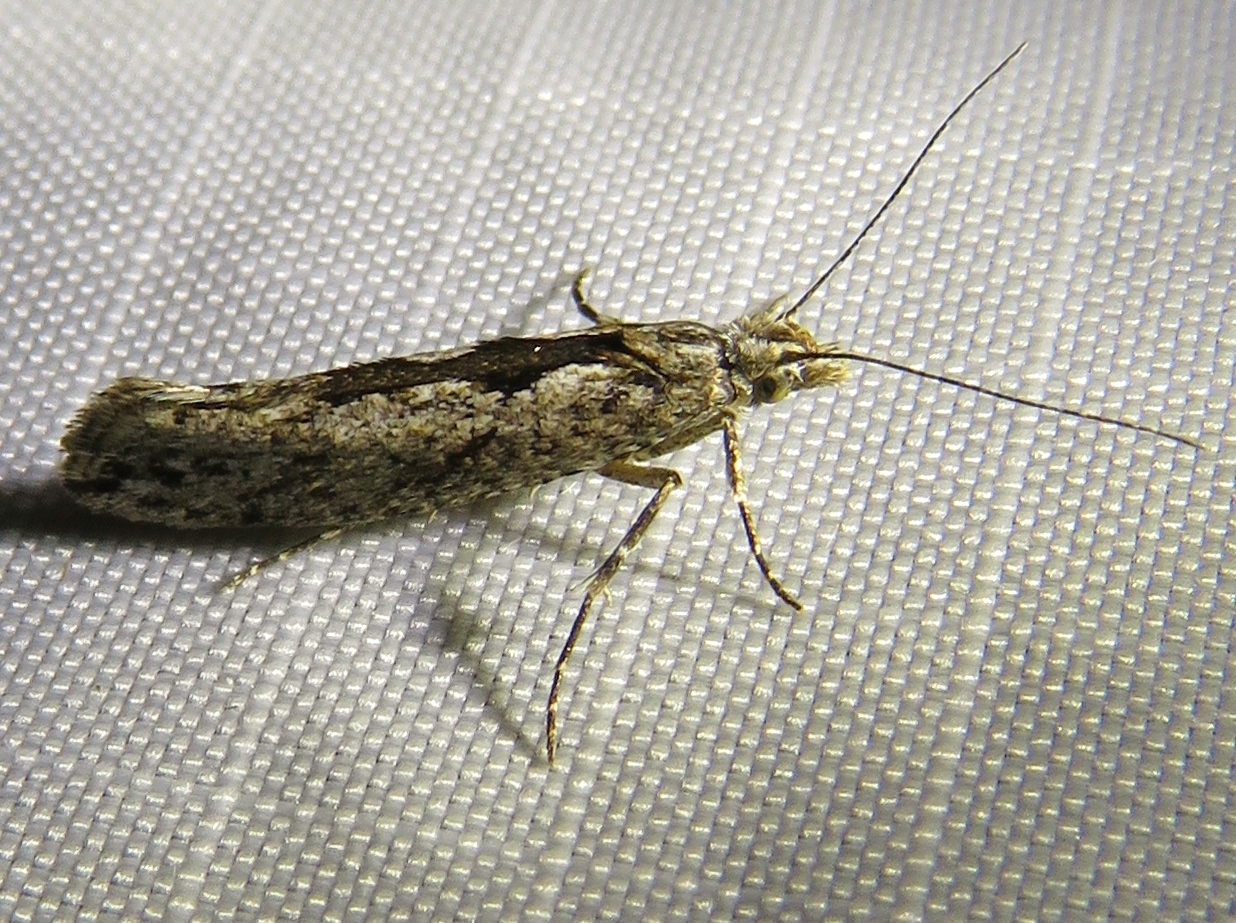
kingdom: Animalia
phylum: Arthropoda
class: Insecta
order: Lepidoptera
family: Ypsolophidae
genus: Ypsolopha
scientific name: Ypsolopha vittella
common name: Elm smudge
